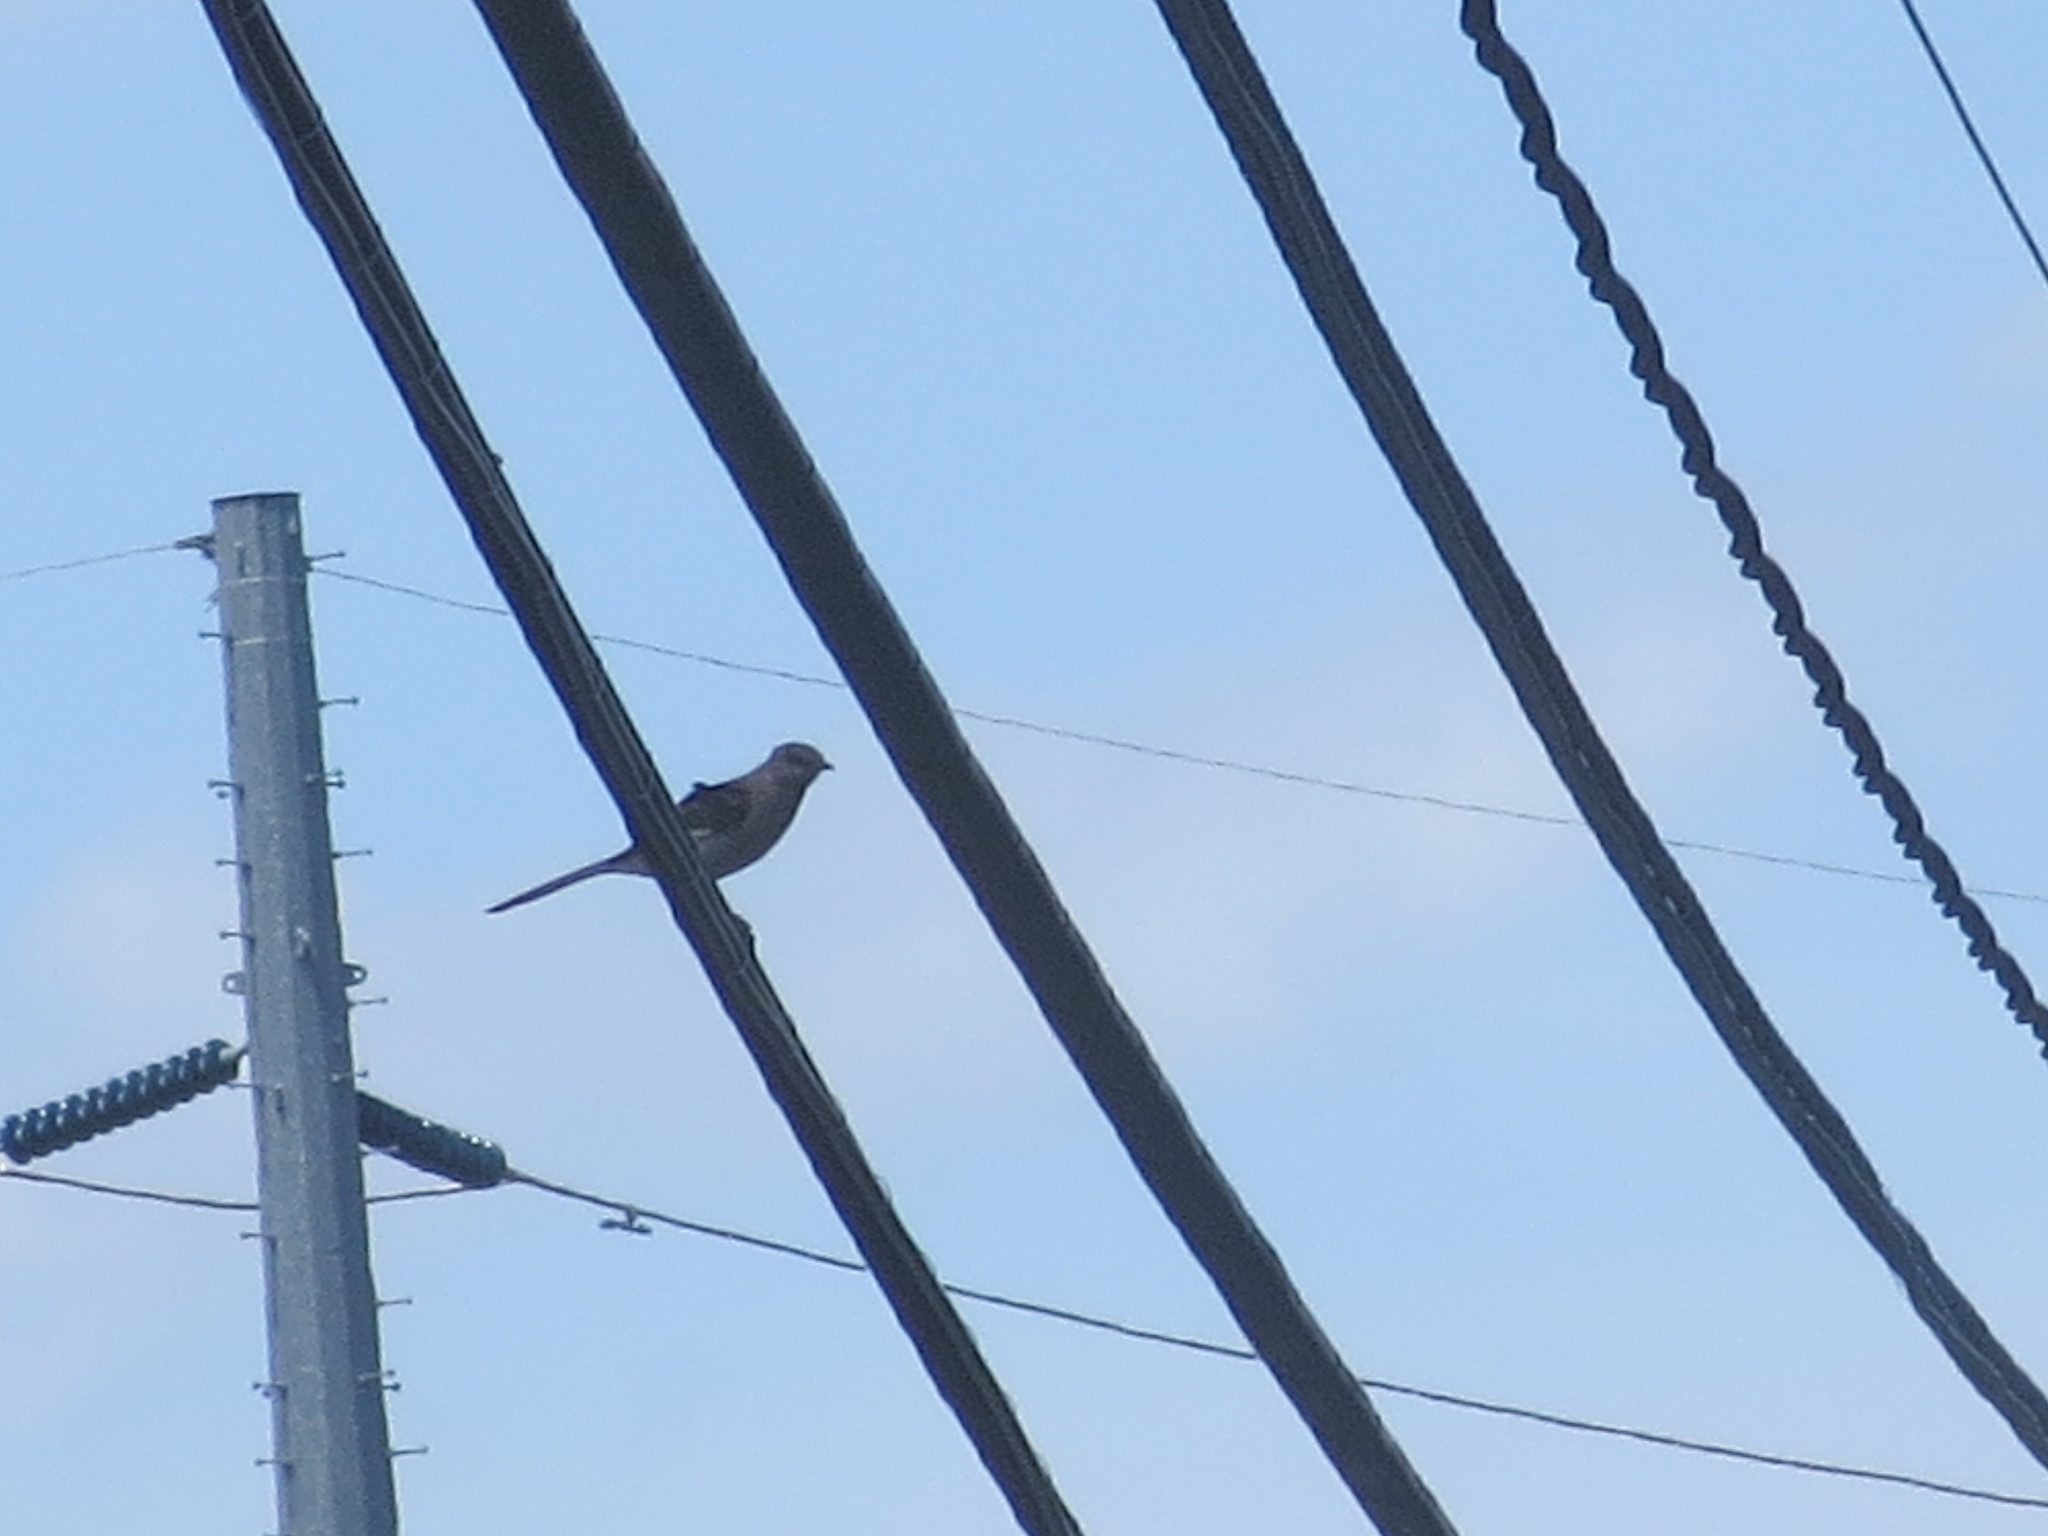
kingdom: Animalia
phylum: Chordata
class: Aves
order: Passeriformes
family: Mimidae
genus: Mimus
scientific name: Mimus polyglottos
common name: Northern mockingbird
